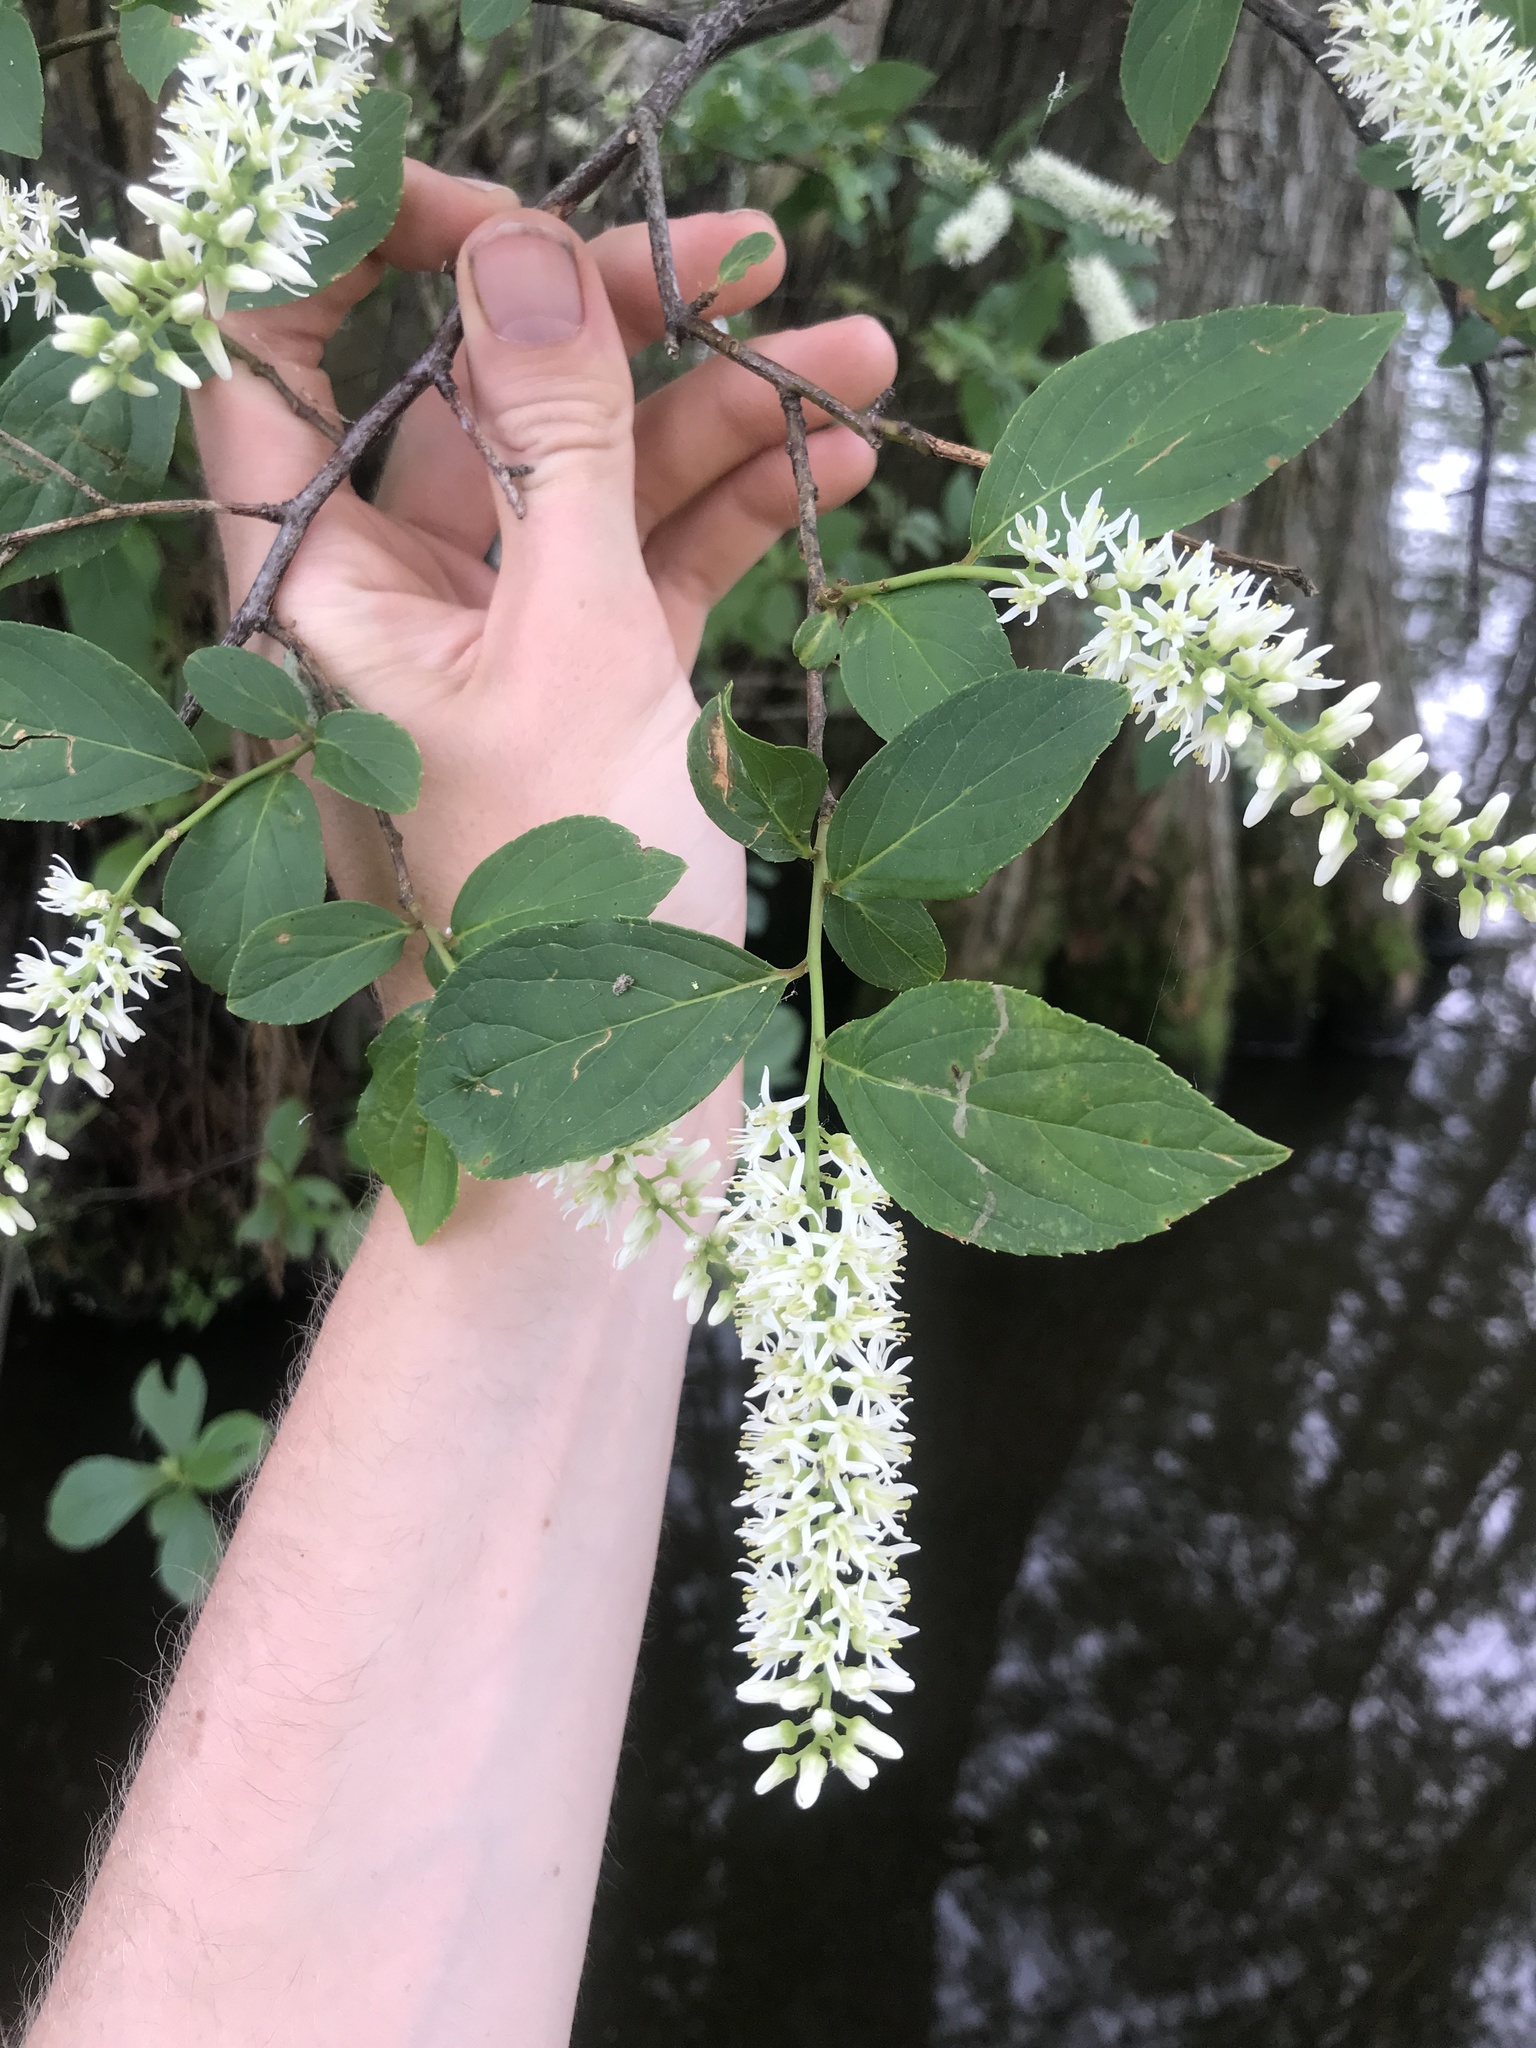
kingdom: Plantae
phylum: Tracheophyta
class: Magnoliopsida
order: Saxifragales
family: Iteaceae
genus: Itea
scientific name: Itea virginica
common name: Sweetspire
